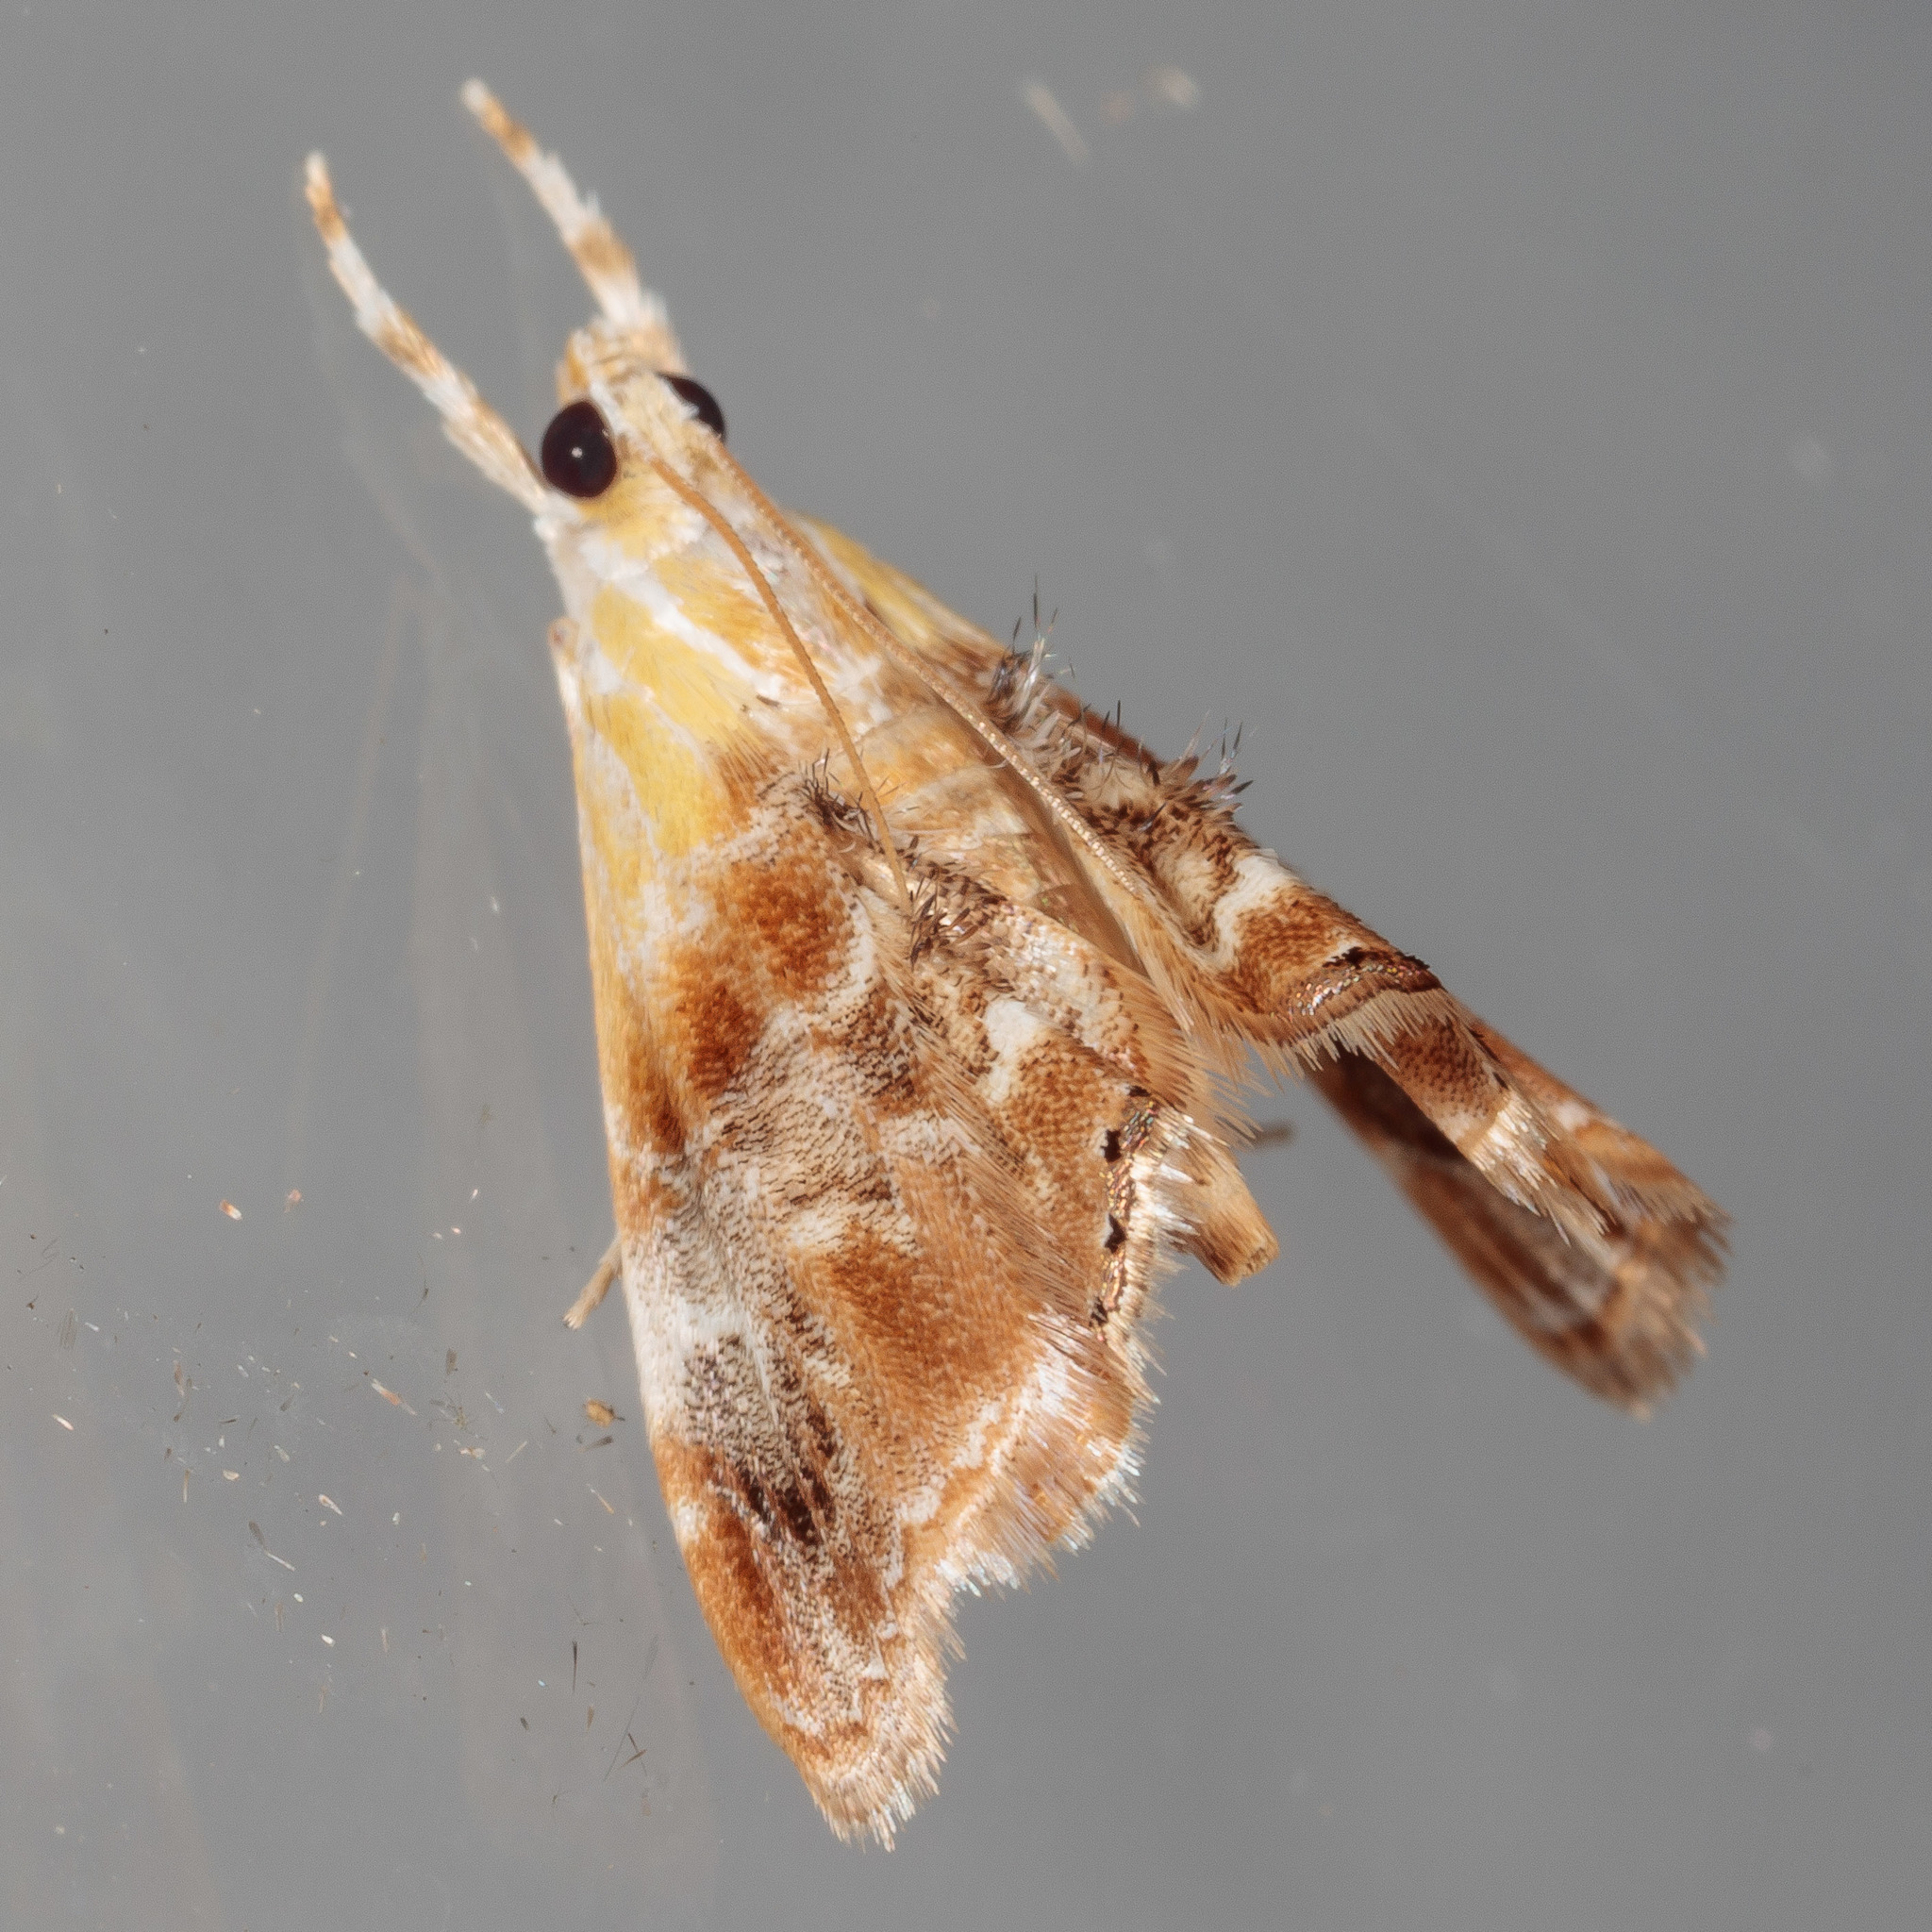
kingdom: Animalia
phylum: Arthropoda
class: Insecta
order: Lepidoptera
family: Crambidae
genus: Dicymolomia
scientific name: Dicymolomia julianalis
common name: Julia's dicymolomia moth
